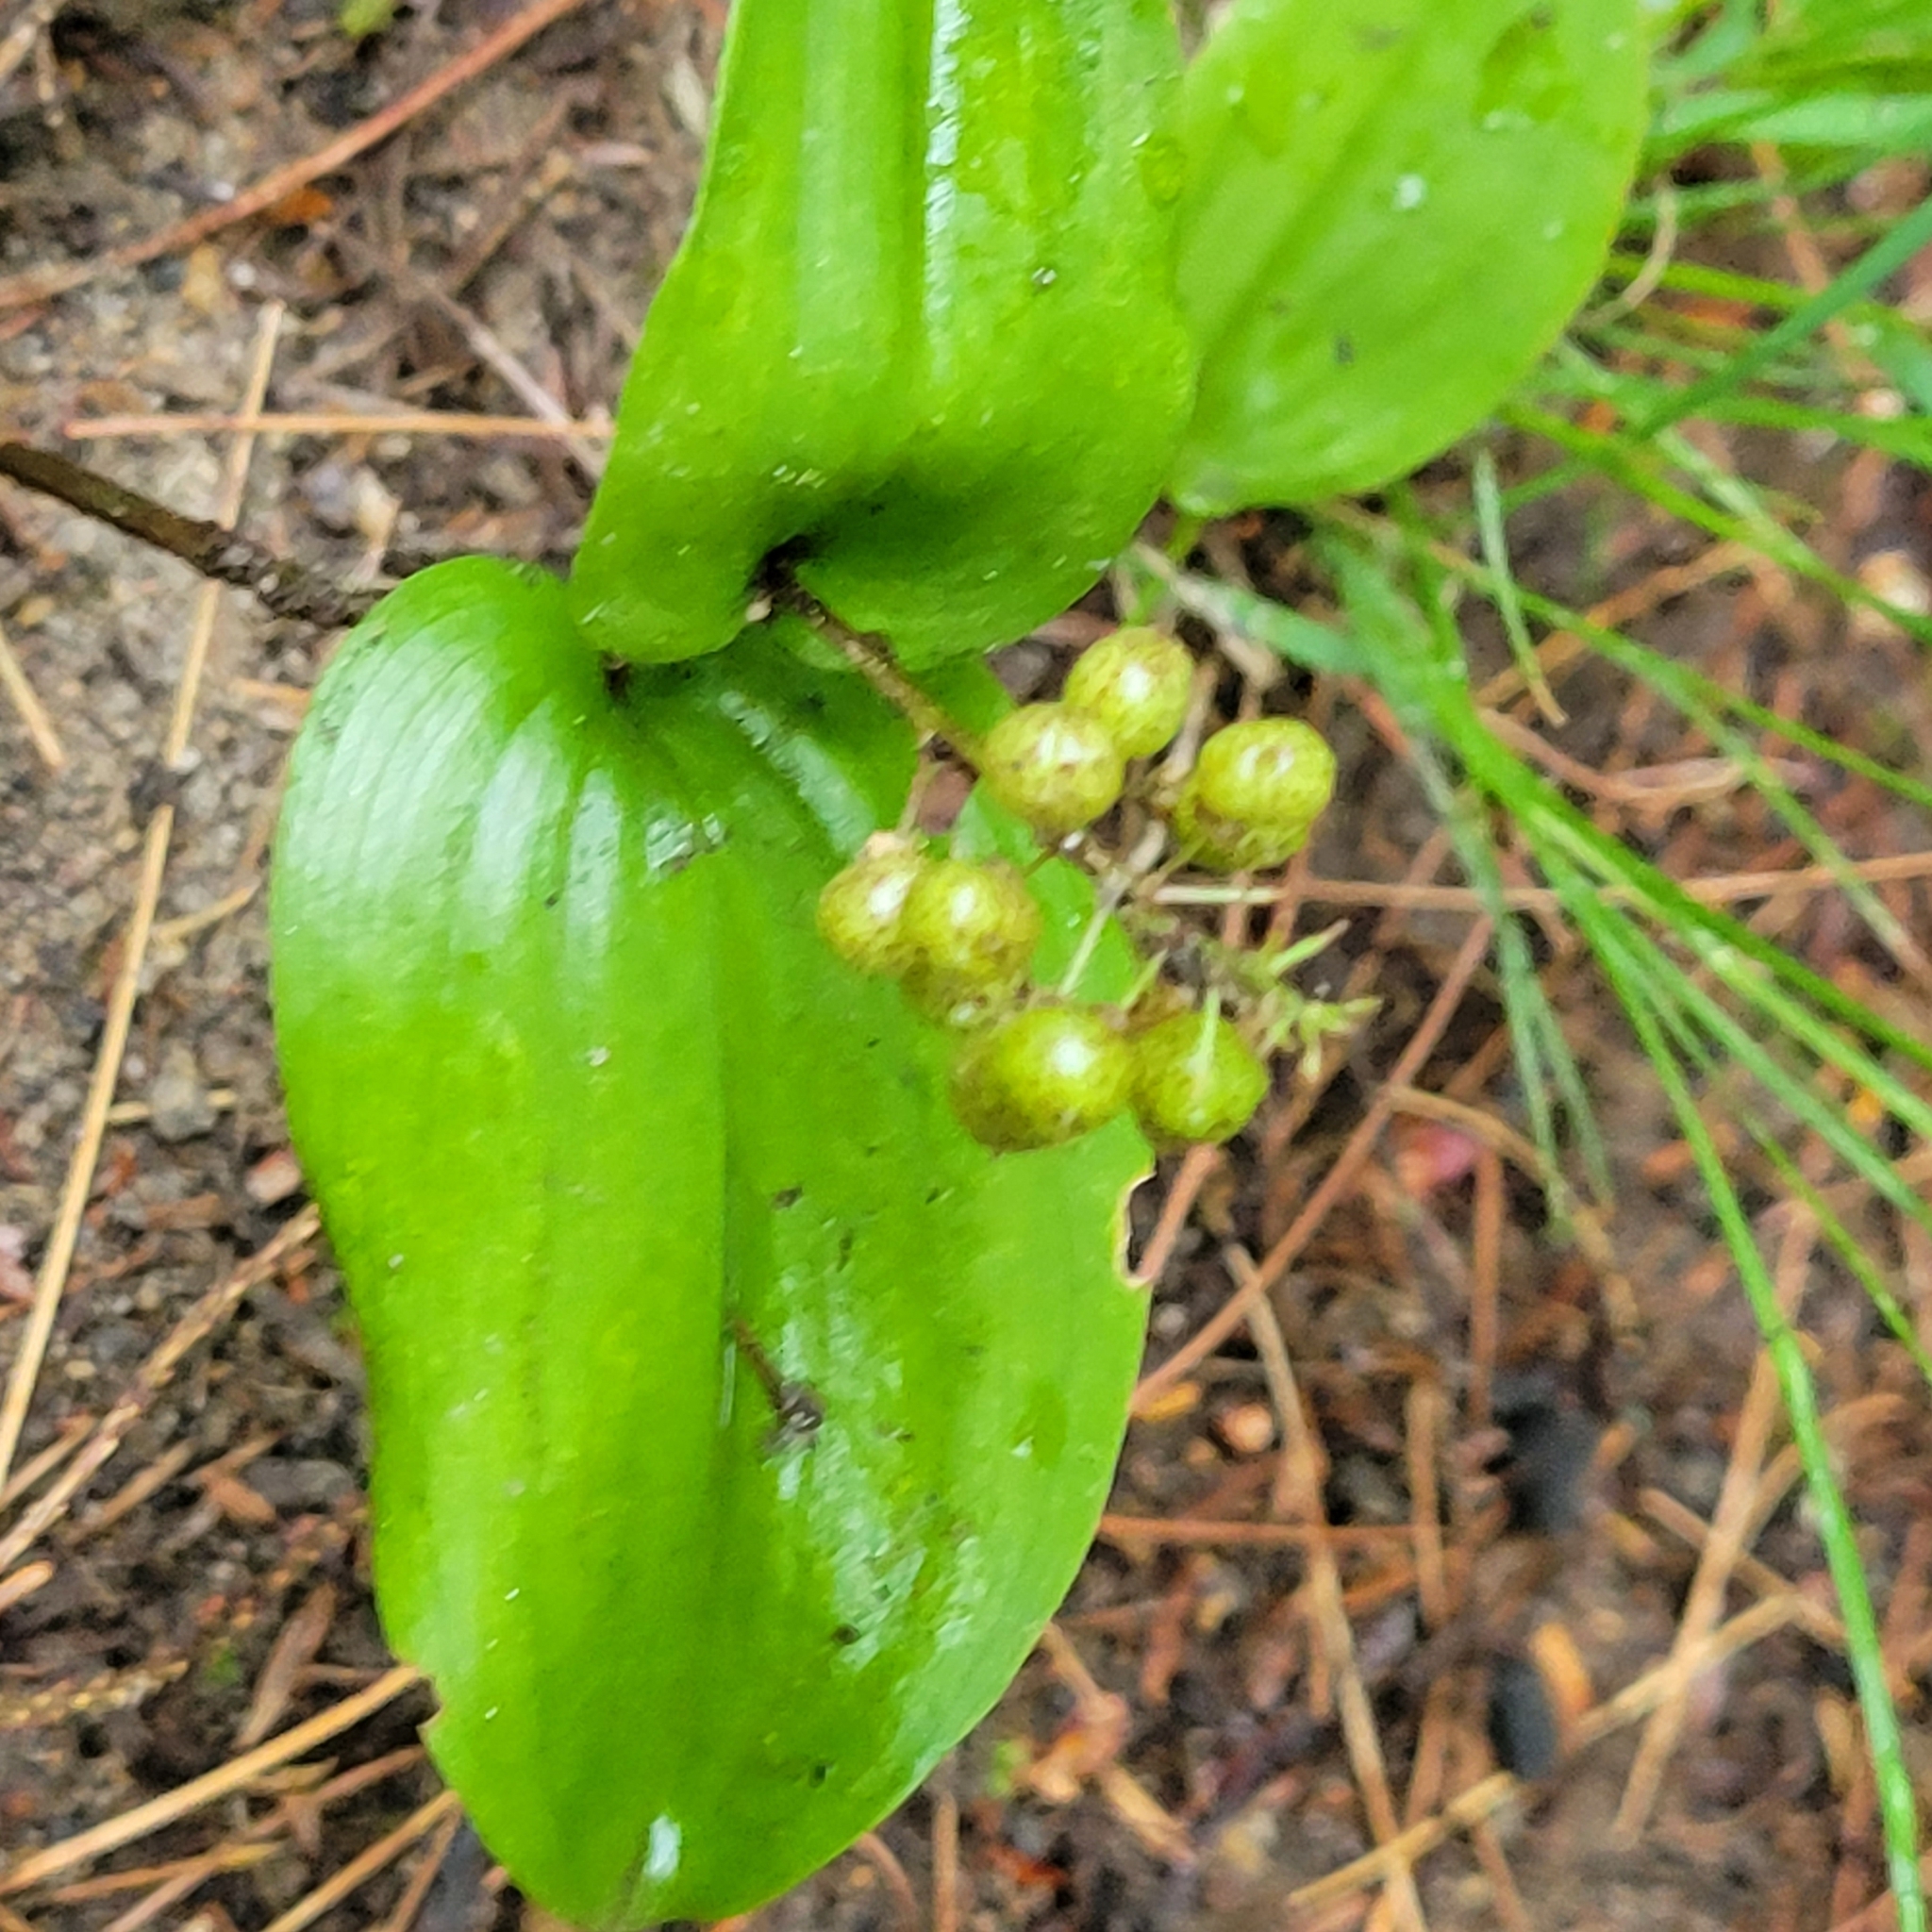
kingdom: Plantae
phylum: Tracheophyta
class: Liliopsida
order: Asparagales
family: Asparagaceae
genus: Maianthemum
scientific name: Maianthemum canadense
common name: False lily-of-the-valley
